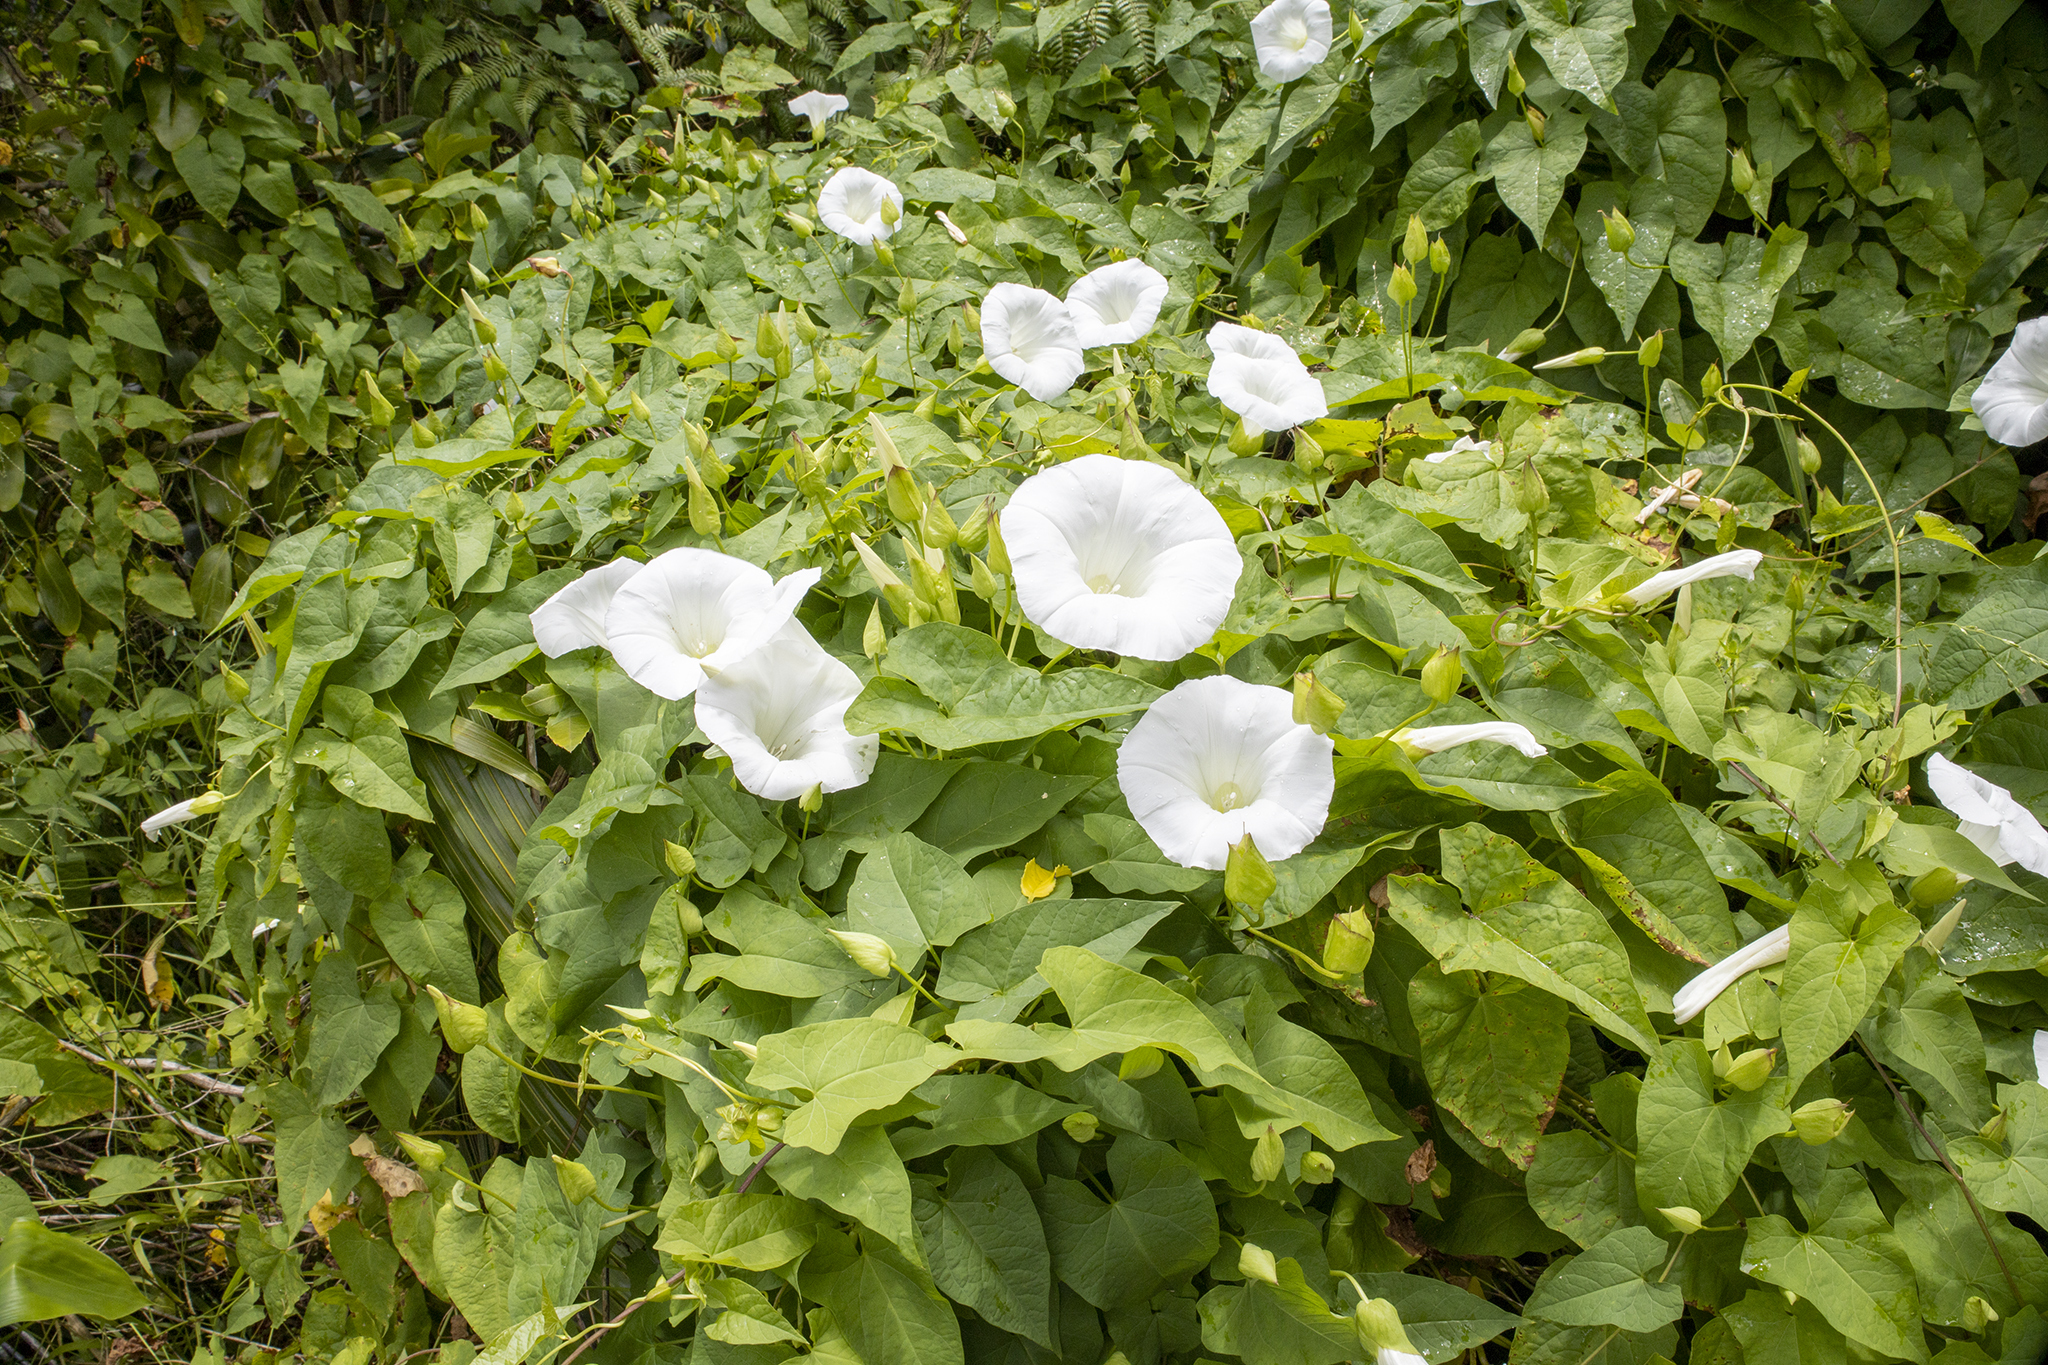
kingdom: Plantae
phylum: Tracheophyta
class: Magnoliopsida
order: Solanales
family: Convolvulaceae
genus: Calystegia
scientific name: Calystegia silvatica
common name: Large bindweed
